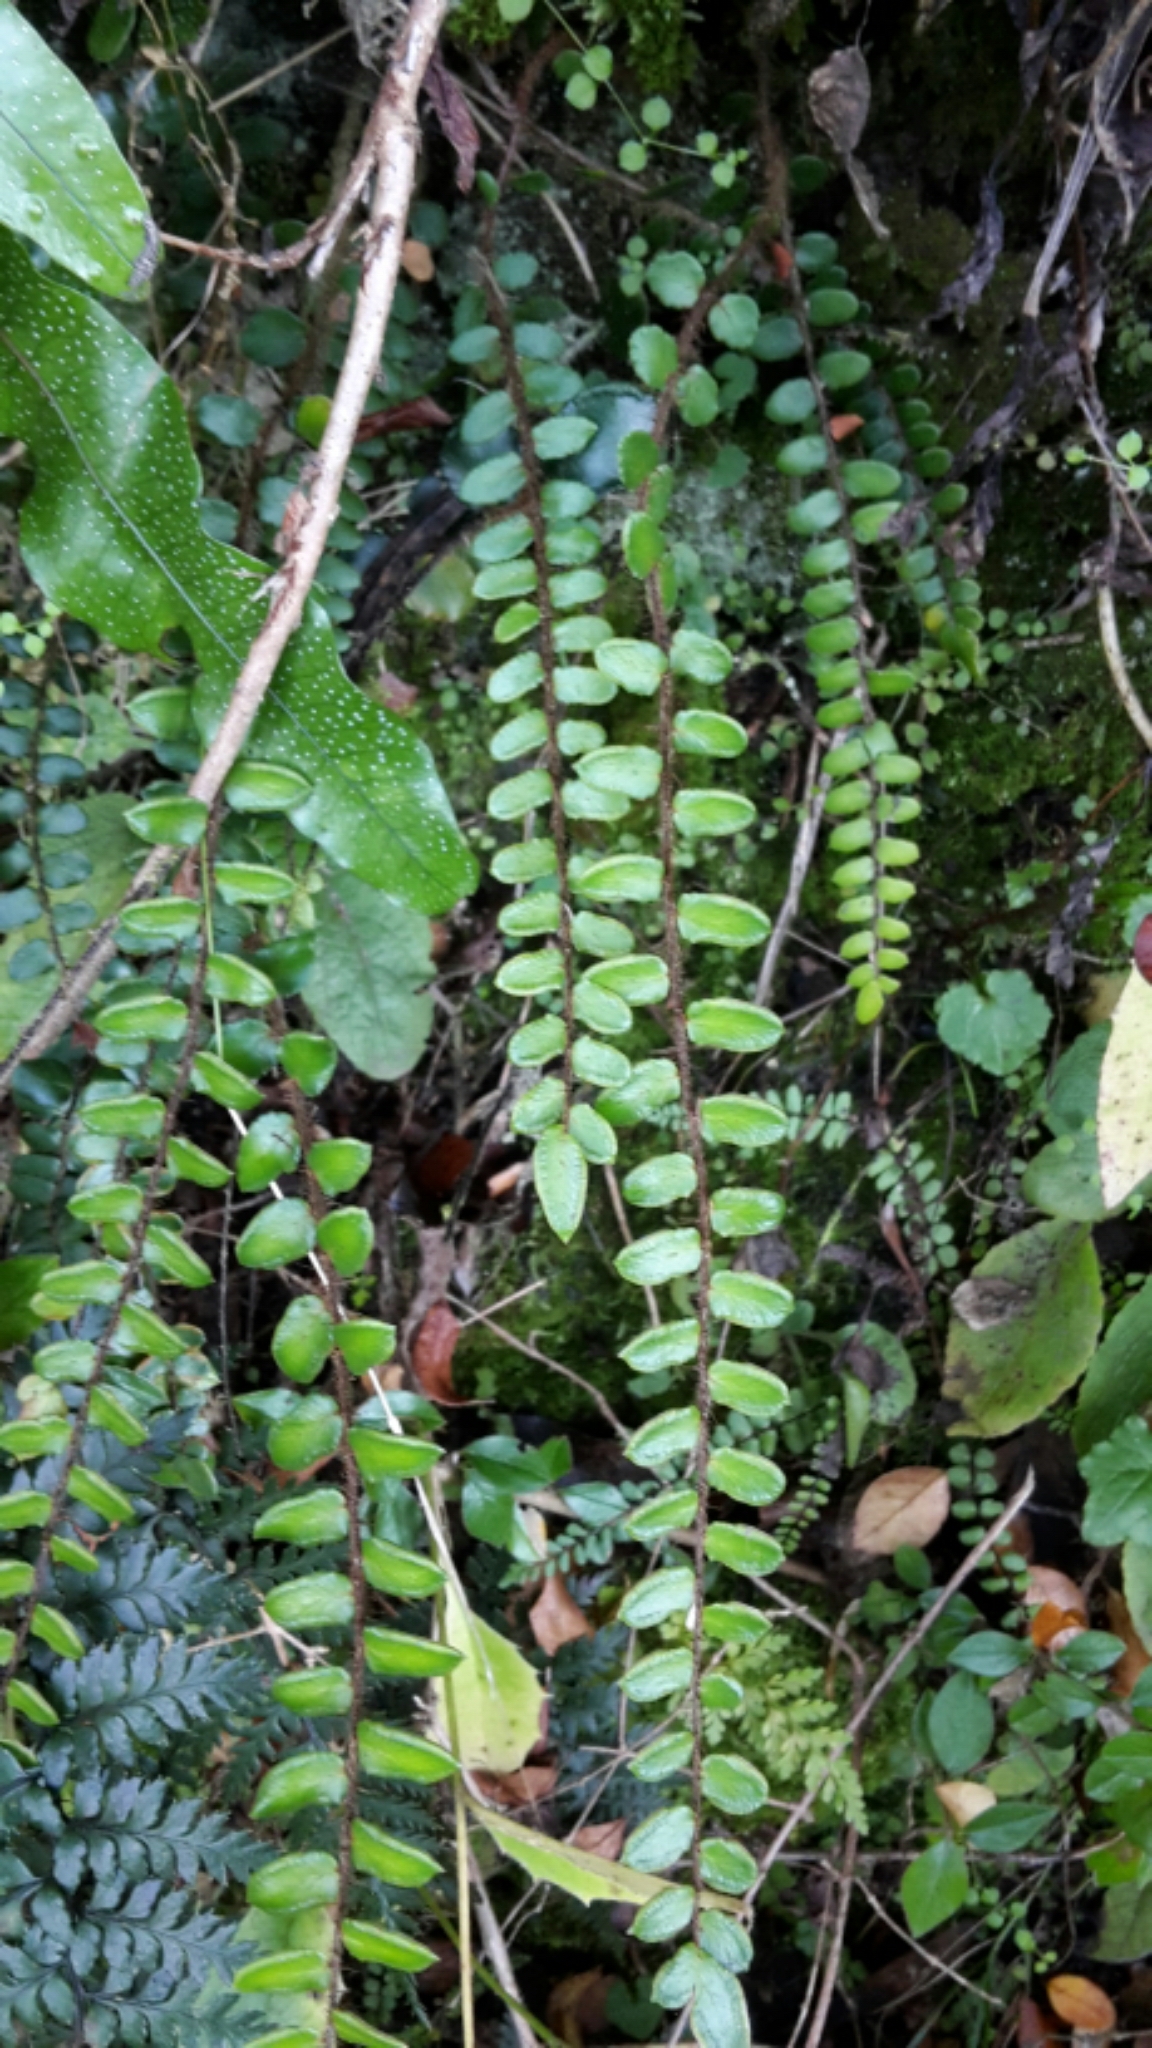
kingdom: Plantae
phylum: Tracheophyta
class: Polypodiopsida
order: Polypodiales
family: Pteridaceae
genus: Pellaea
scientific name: Pellaea rotundifolia
